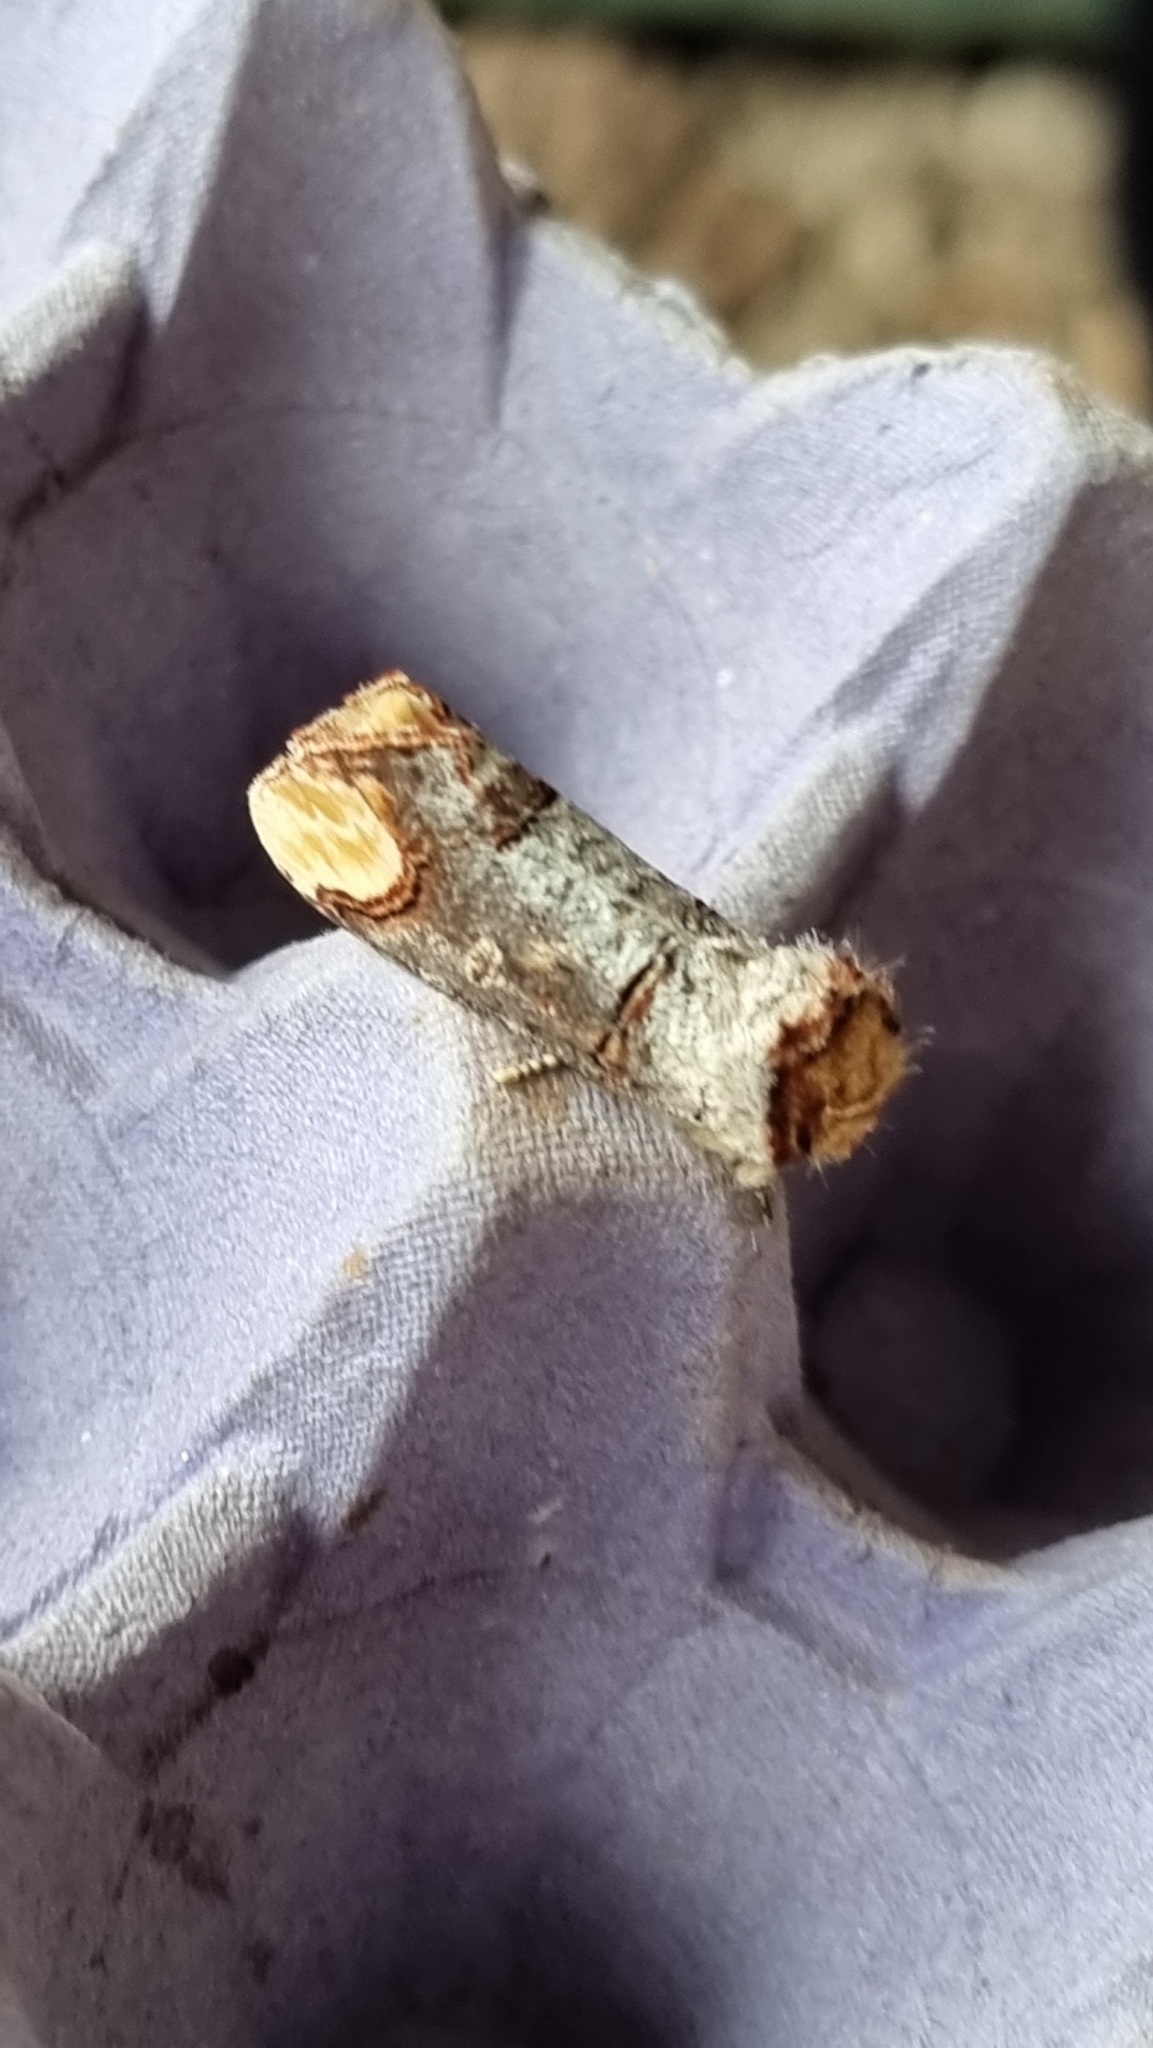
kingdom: Animalia
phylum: Arthropoda
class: Insecta
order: Lepidoptera
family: Notodontidae
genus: Phalera
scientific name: Phalera bucephala
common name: Buff-tip
